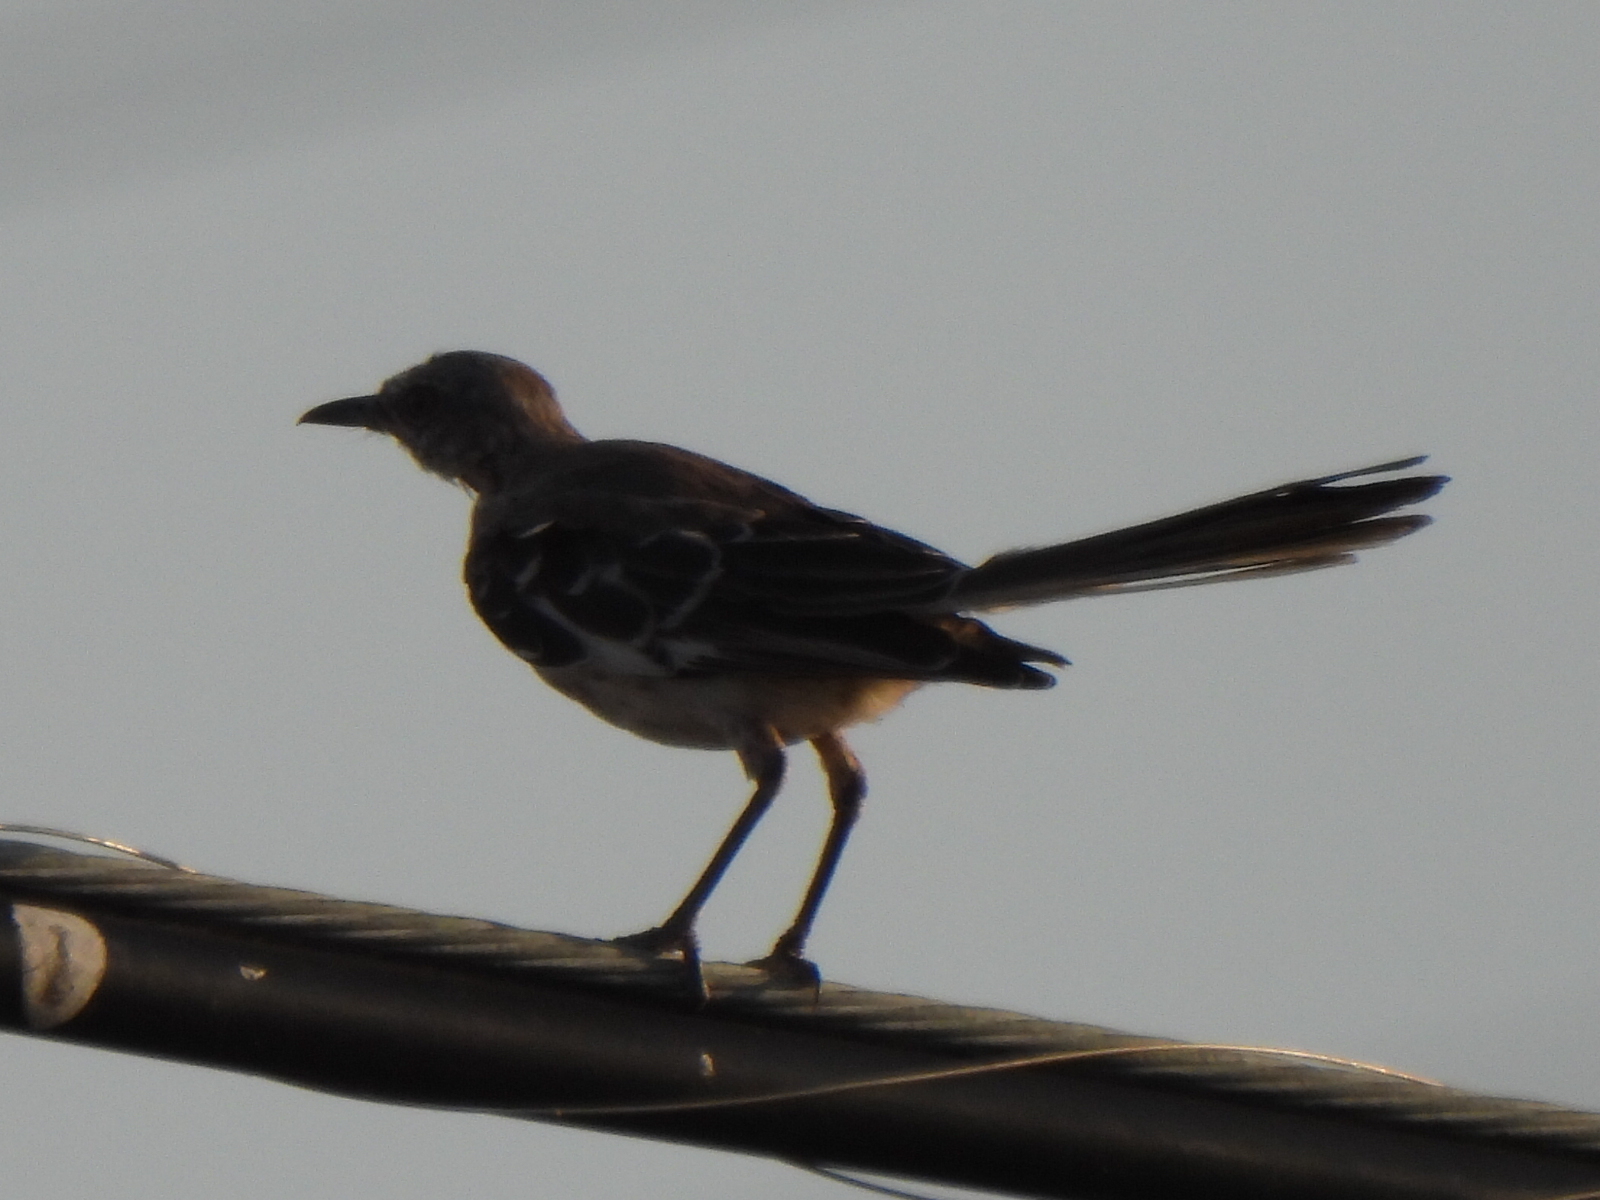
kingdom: Animalia
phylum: Chordata
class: Aves
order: Passeriformes
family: Mimidae
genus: Mimus
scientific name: Mimus polyglottos
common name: Northern mockingbird
